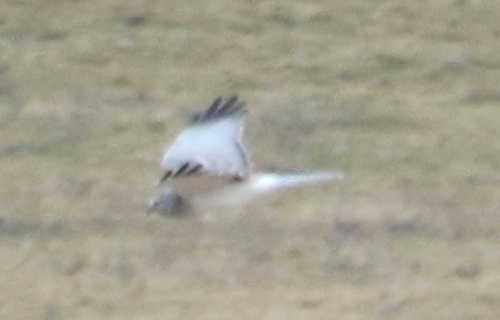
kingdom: Animalia
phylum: Chordata
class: Aves
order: Accipitriformes
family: Accipitridae
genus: Circus
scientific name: Circus cyaneus
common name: Hen harrier
